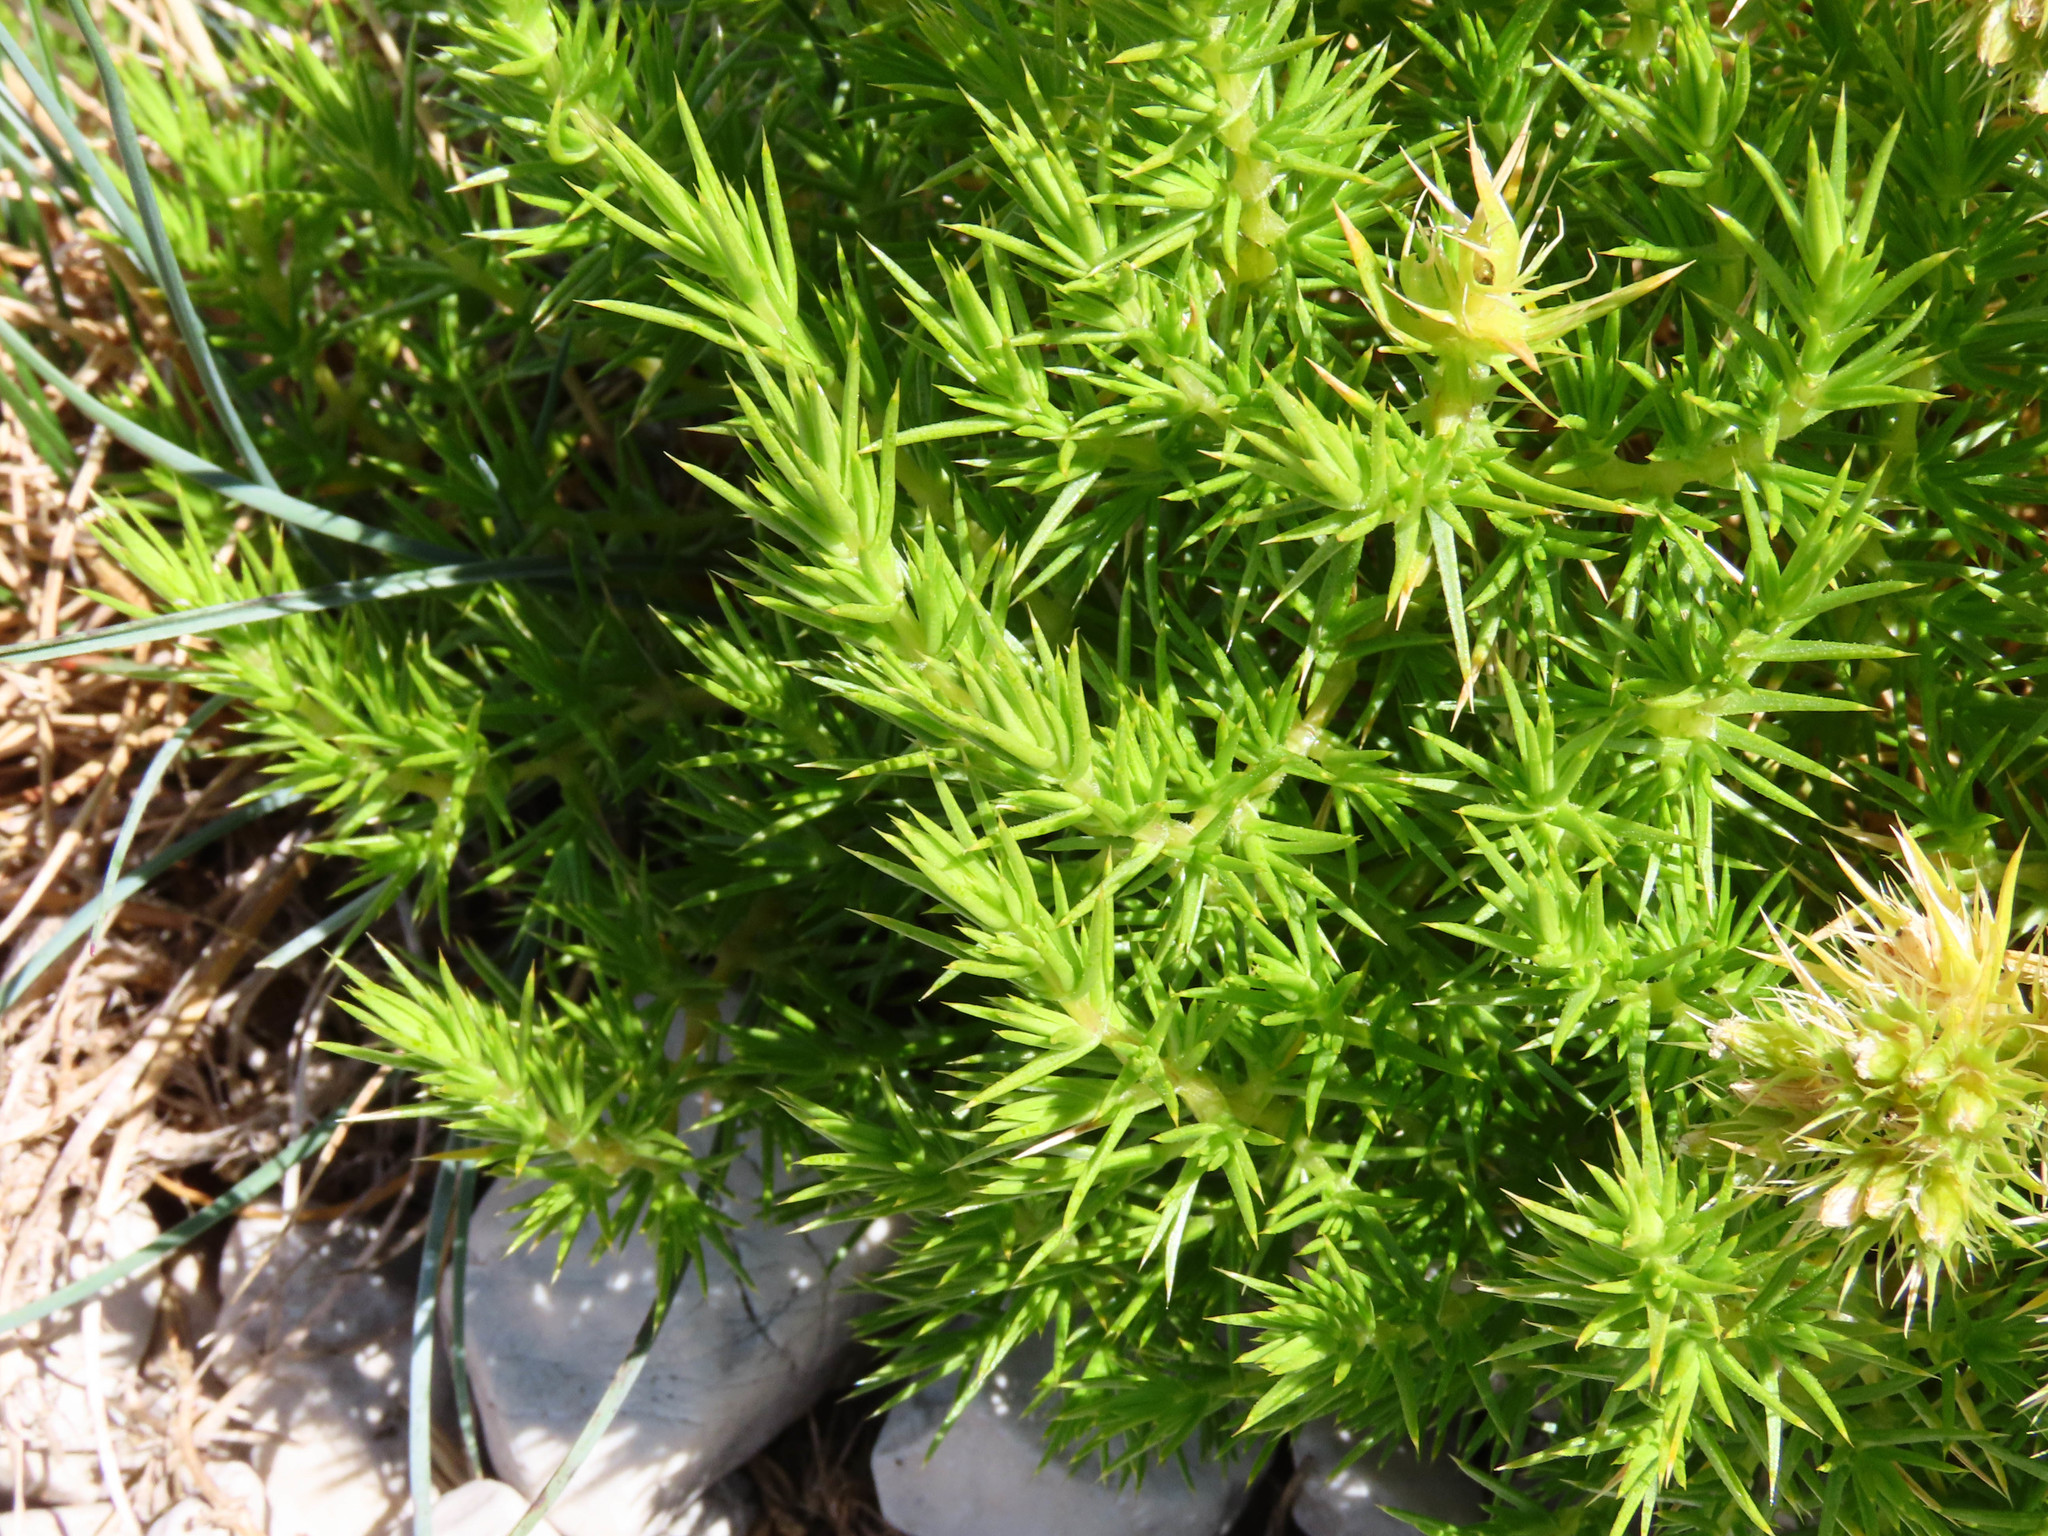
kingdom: Plantae
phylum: Tracheophyta
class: Magnoliopsida
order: Caryophyllales
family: Caryophyllaceae
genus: Drypis
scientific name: Drypis spinosa
